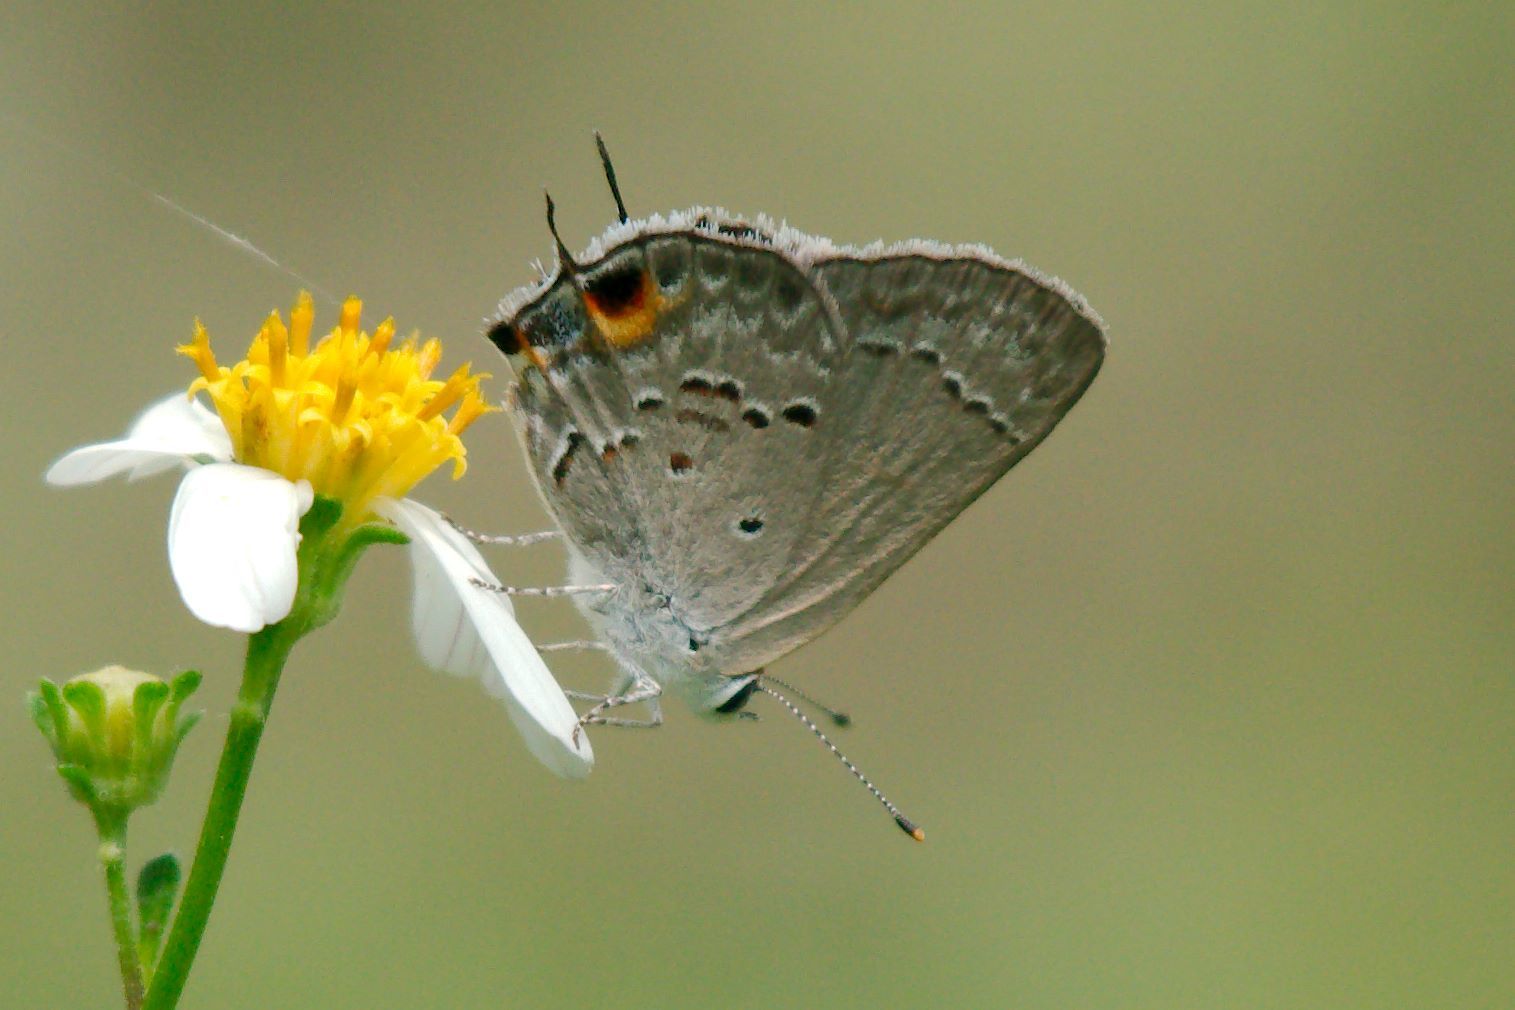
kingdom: Animalia
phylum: Arthropoda
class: Insecta
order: Lepidoptera
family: Lycaenidae
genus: Callicista
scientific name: Callicista columella
